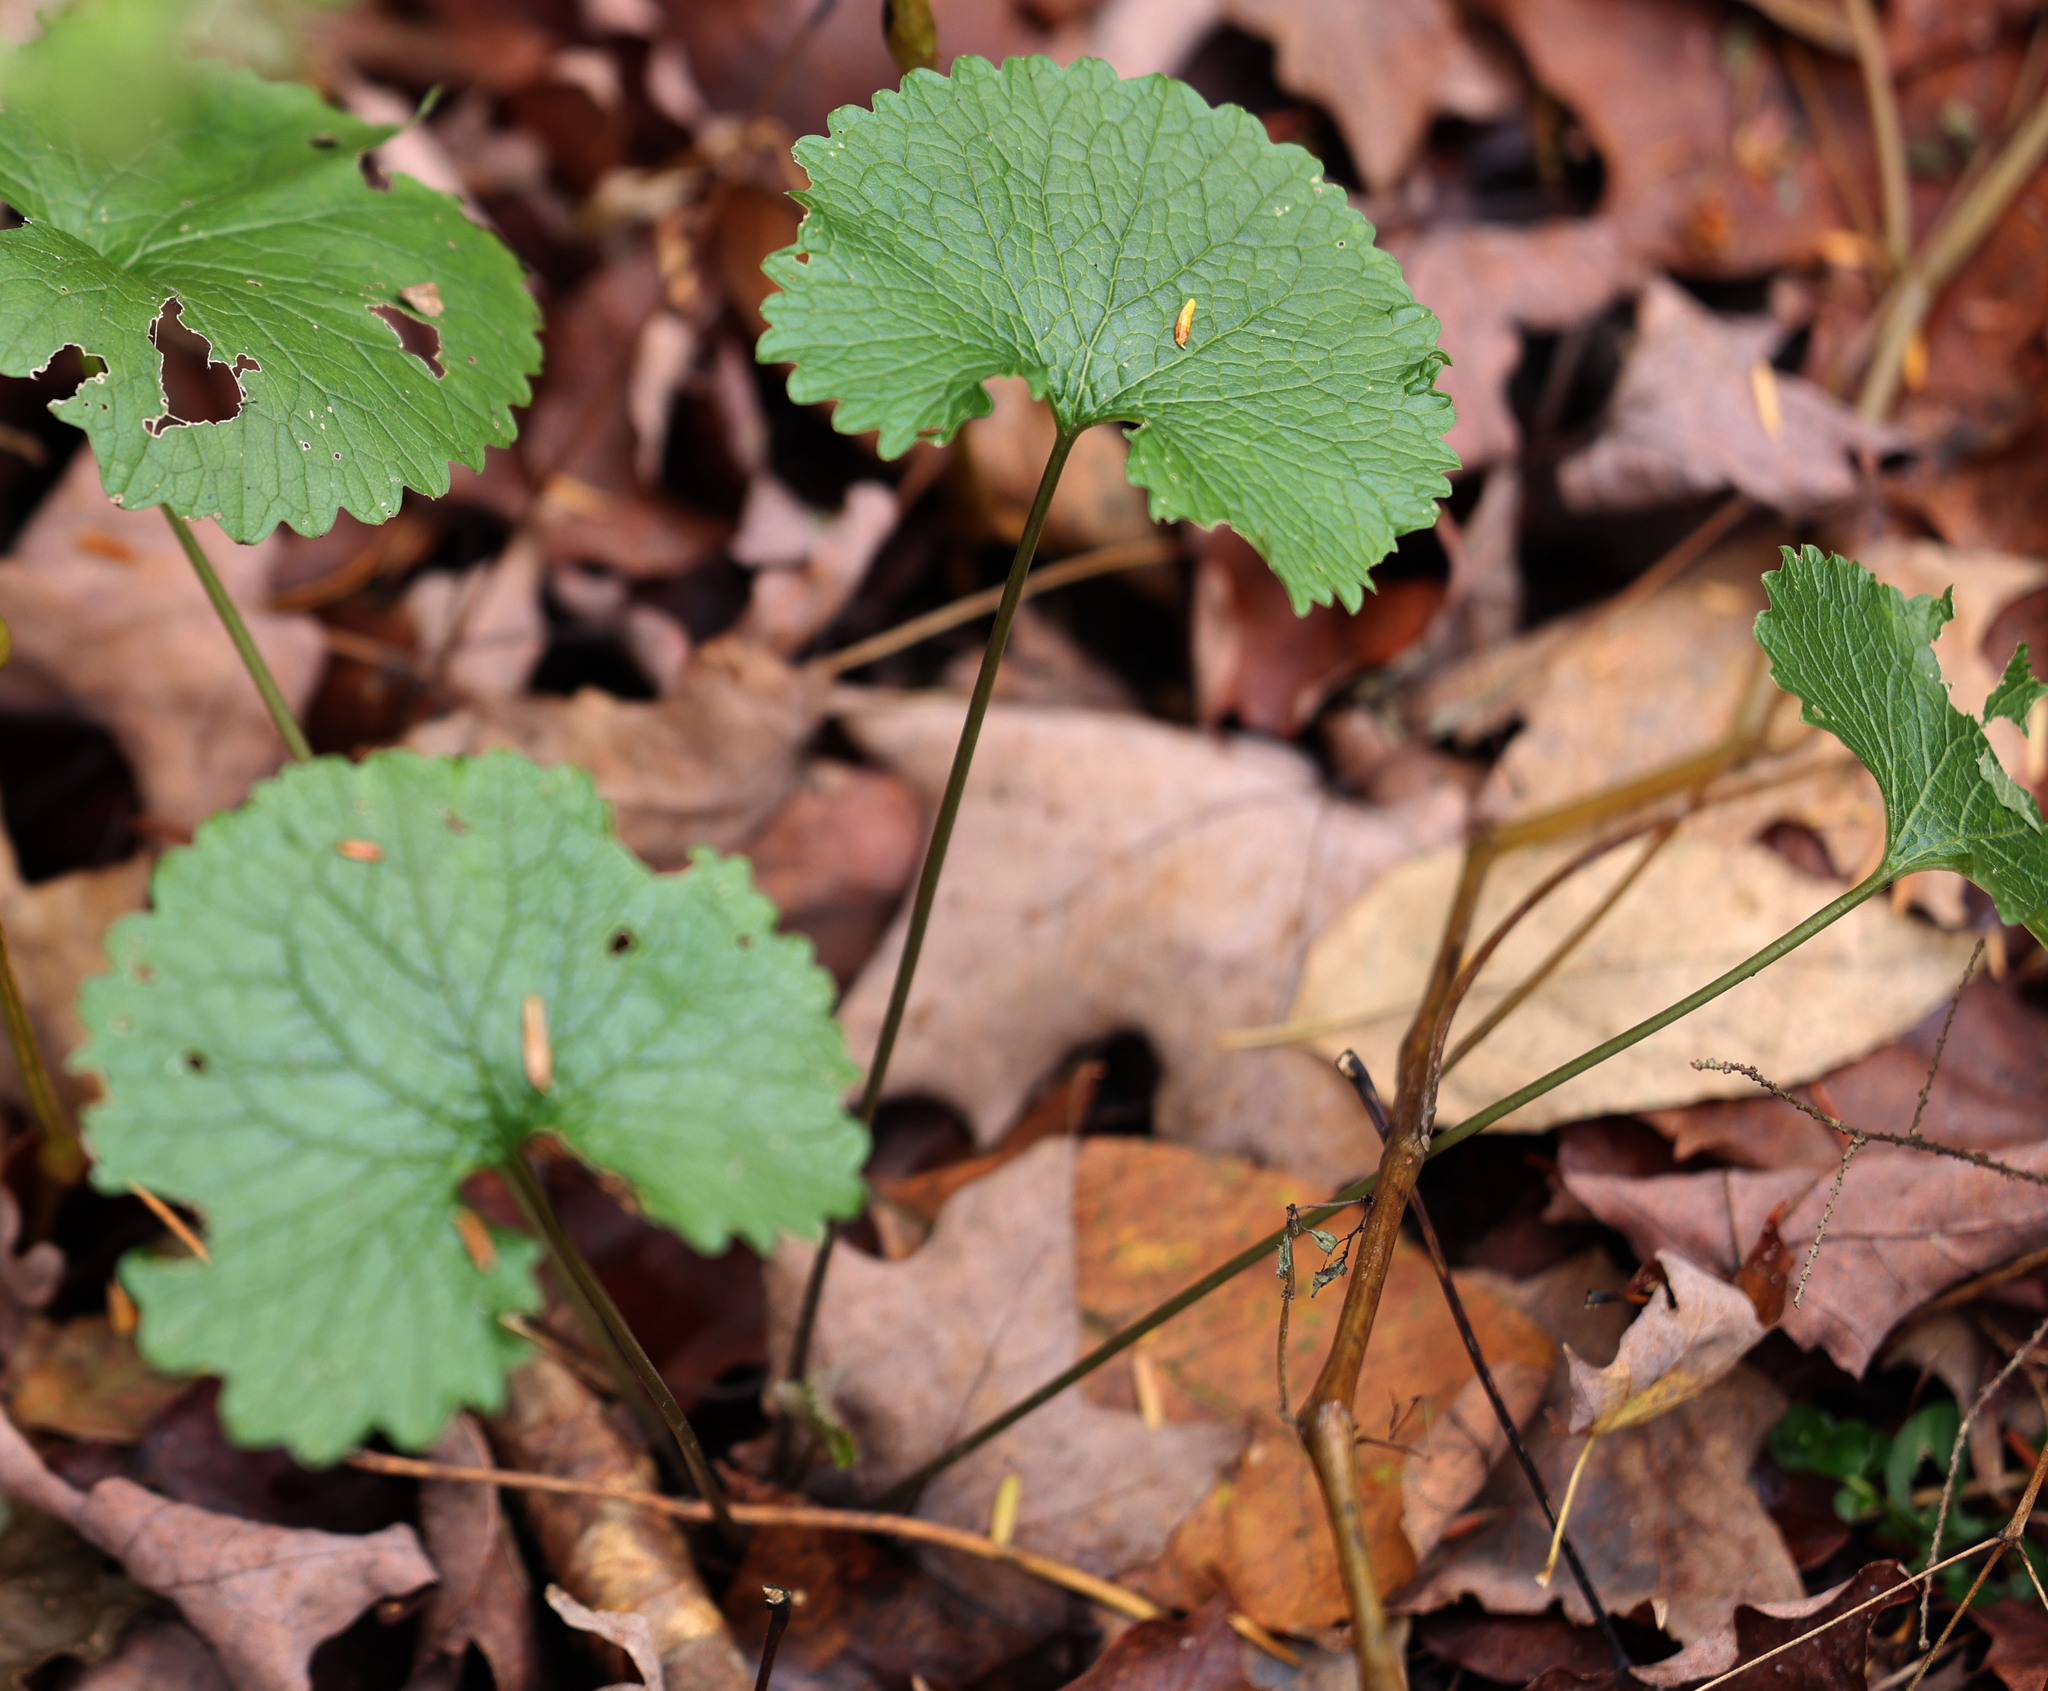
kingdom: Plantae
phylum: Tracheophyta
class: Magnoliopsida
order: Brassicales
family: Brassicaceae
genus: Alliaria
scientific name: Alliaria petiolata
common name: Garlic mustard
